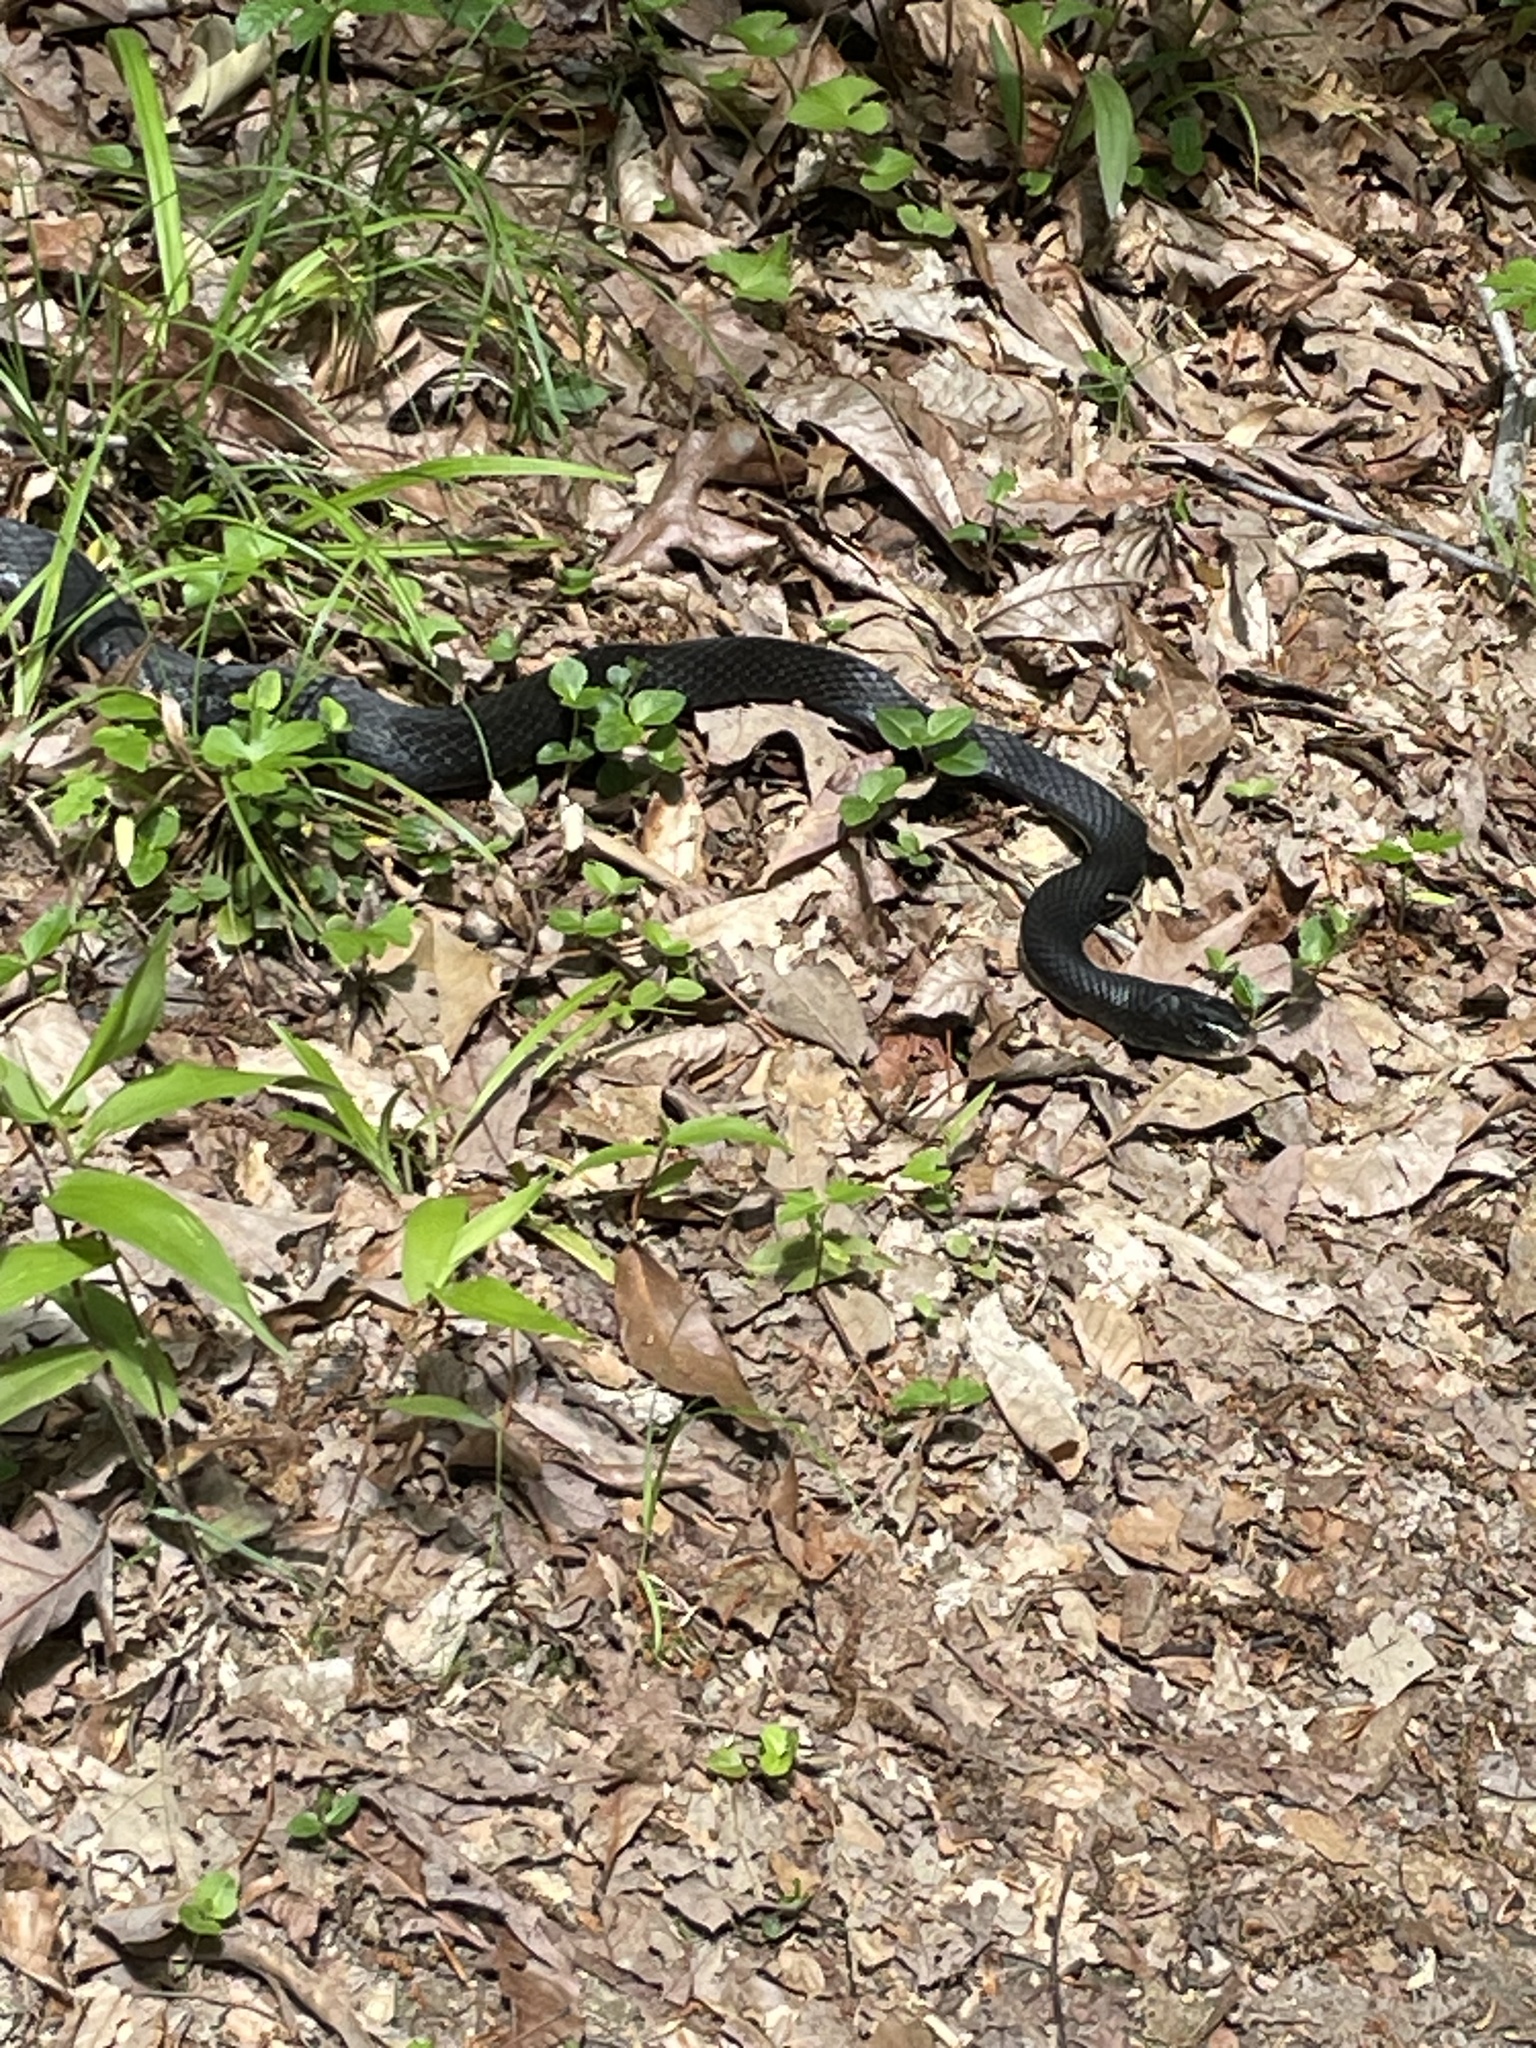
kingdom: Animalia
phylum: Chordata
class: Squamata
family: Colubridae
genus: Coluber
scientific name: Coluber constrictor
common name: Eastern racer
